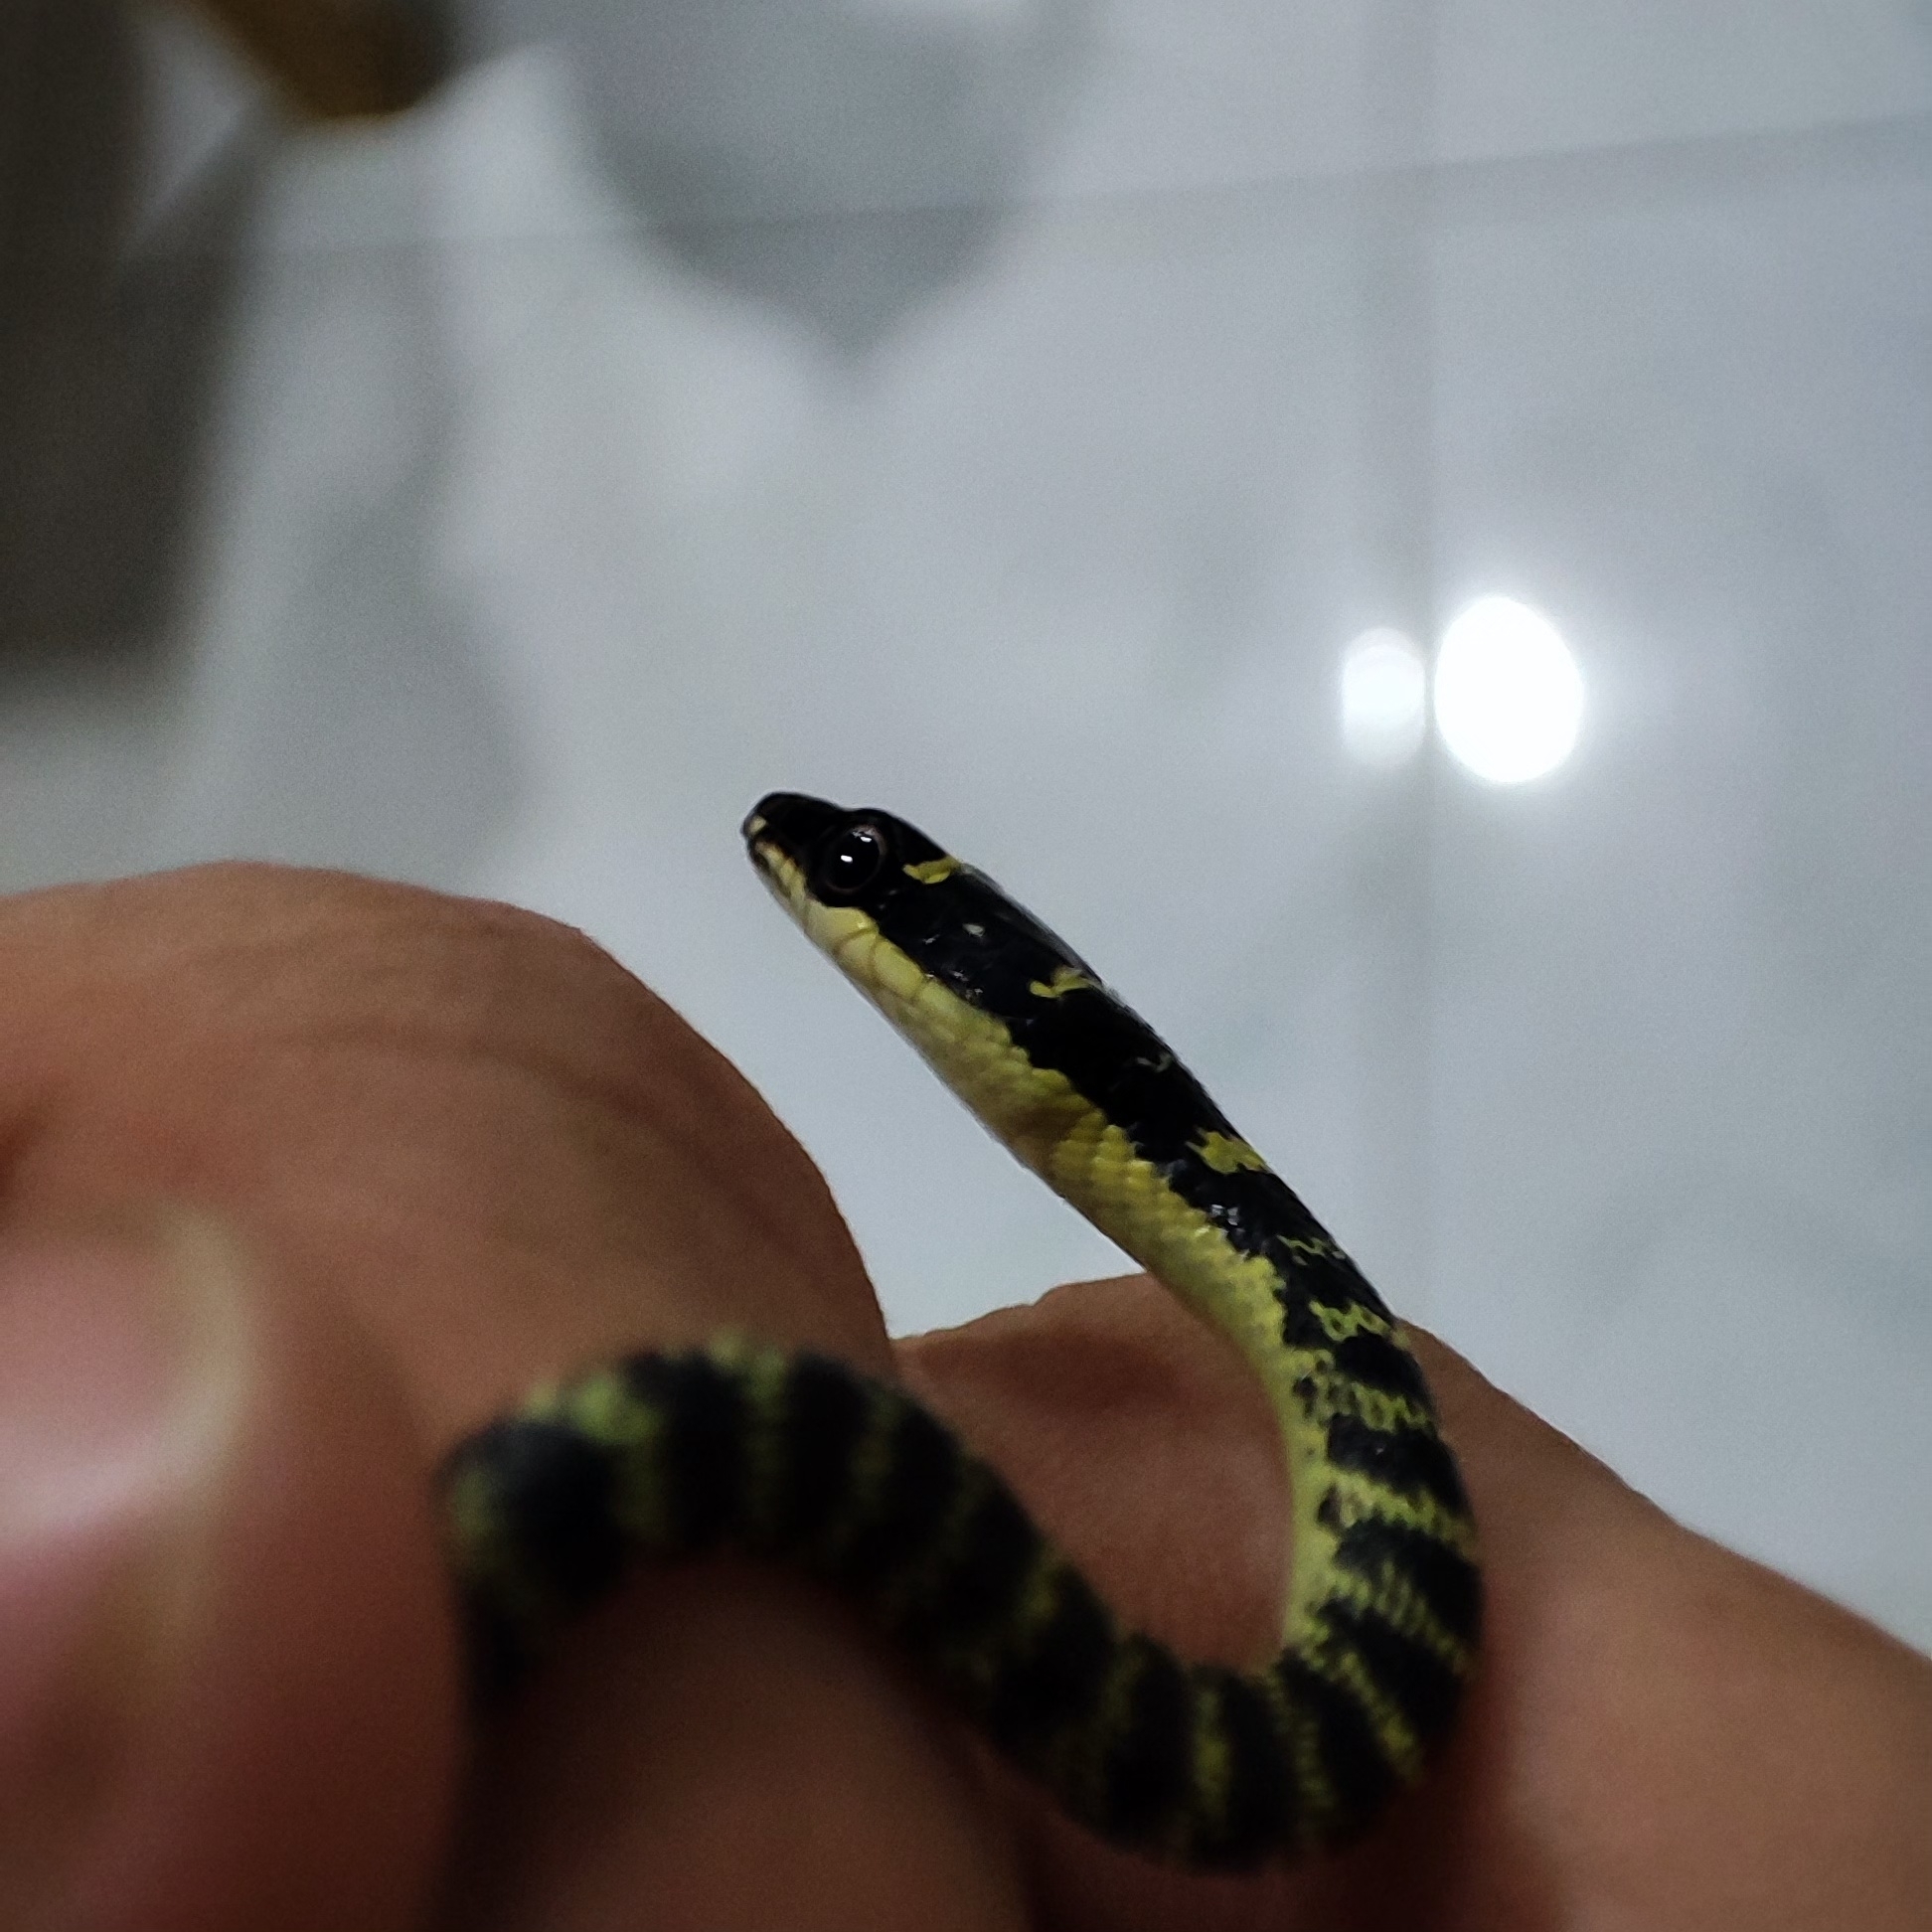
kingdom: Animalia
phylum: Chordata
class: Squamata
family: Colubridae
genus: Chrysopelea
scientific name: Chrysopelea ornata
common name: Golden flying snake
